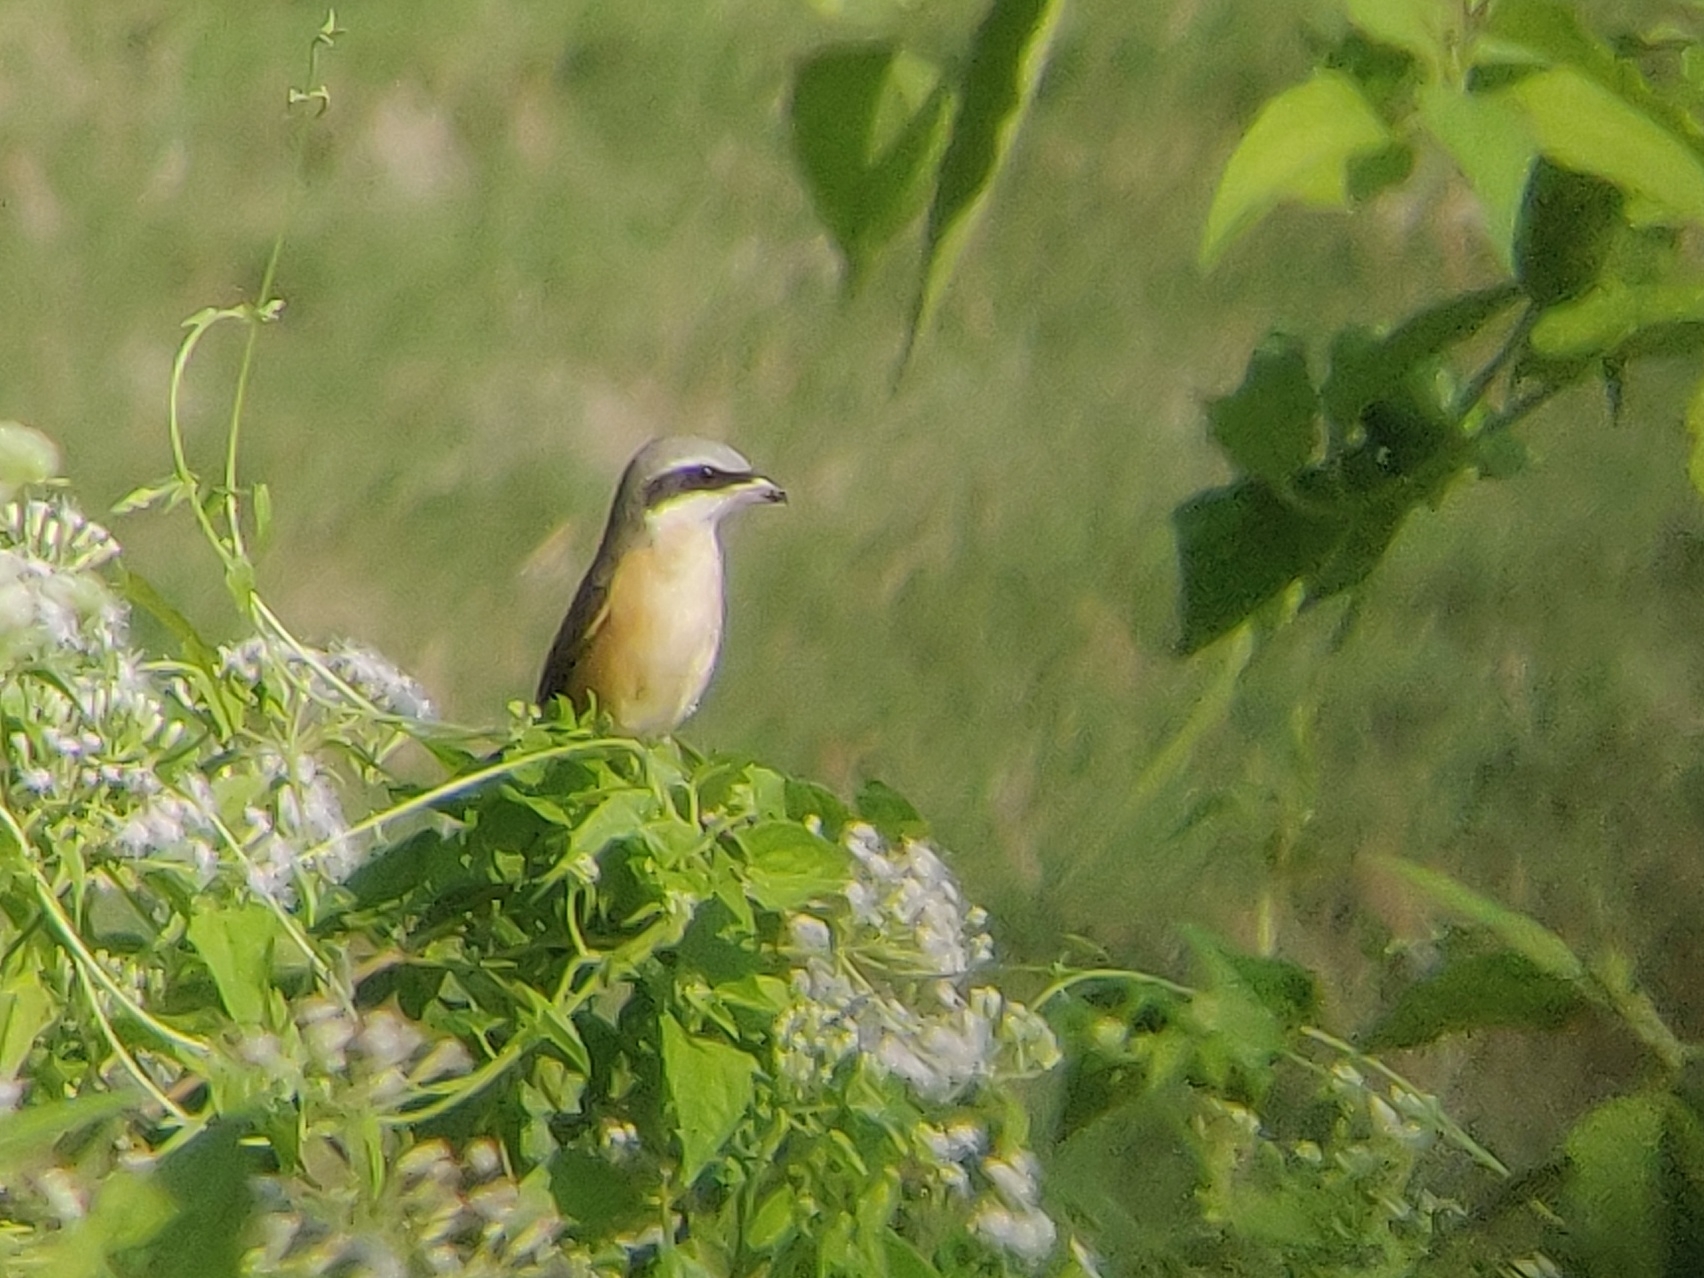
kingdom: Animalia
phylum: Chordata
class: Aves
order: Passeriformes
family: Laniidae
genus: Lanius
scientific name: Lanius cristatus
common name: Brown shrike
